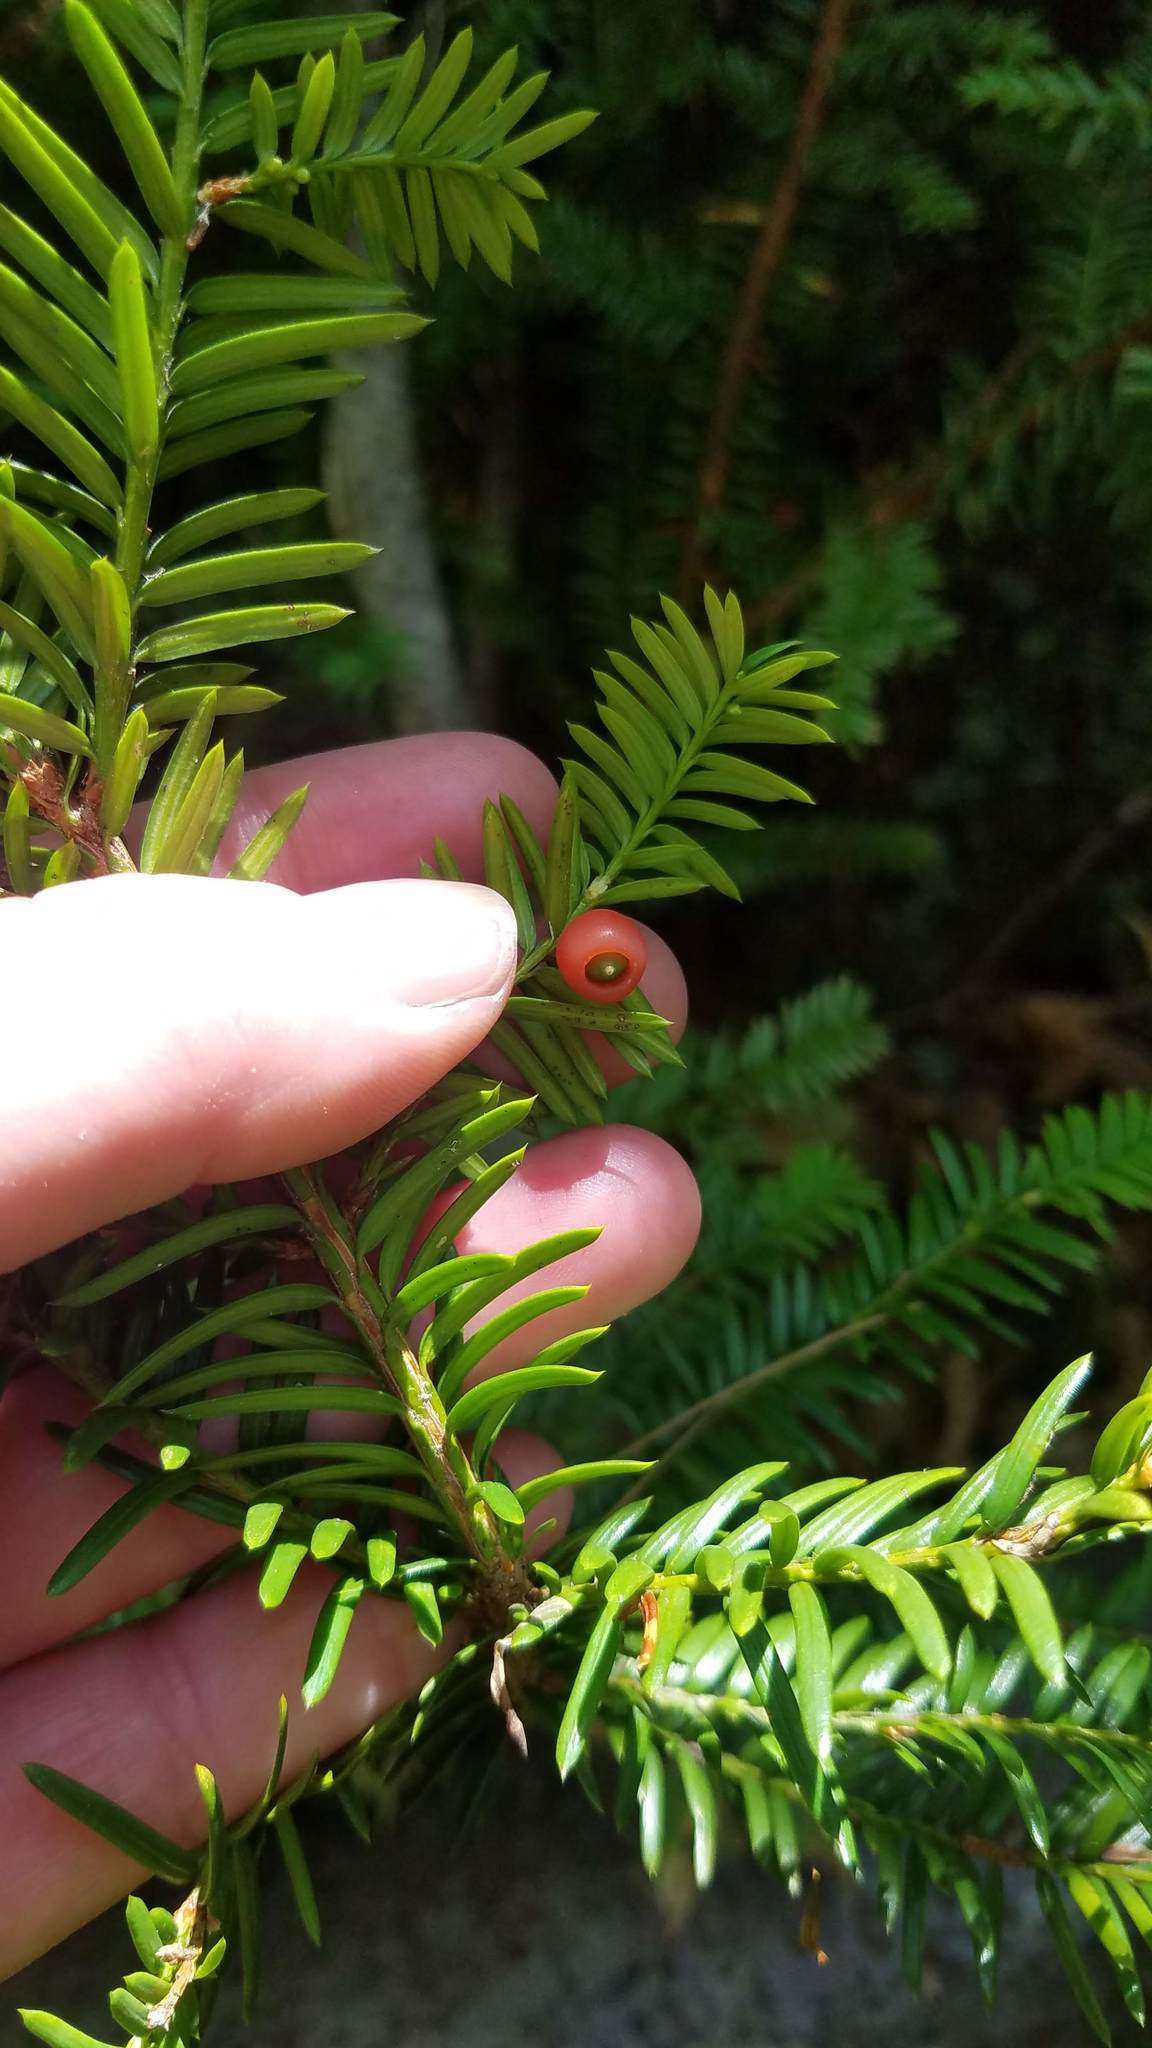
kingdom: Plantae
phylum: Tracheophyta
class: Pinopsida
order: Pinales
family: Taxaceae
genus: Taxus
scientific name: Taxus canadensis
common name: American yew
